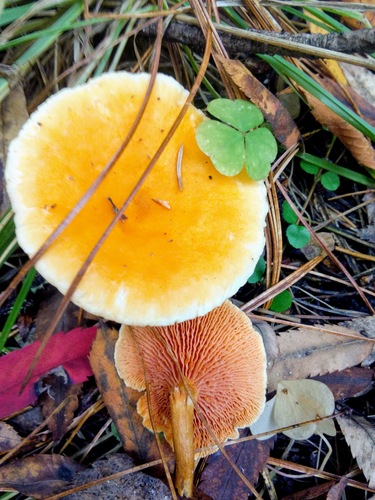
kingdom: Fungi
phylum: Basidiomycota
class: Agaricomycetes
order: Boletales
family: Hygrophoropsidaceae
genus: Hygrophoropsis
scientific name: Hygrophoropsis aurantiaca
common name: False chanterelle
